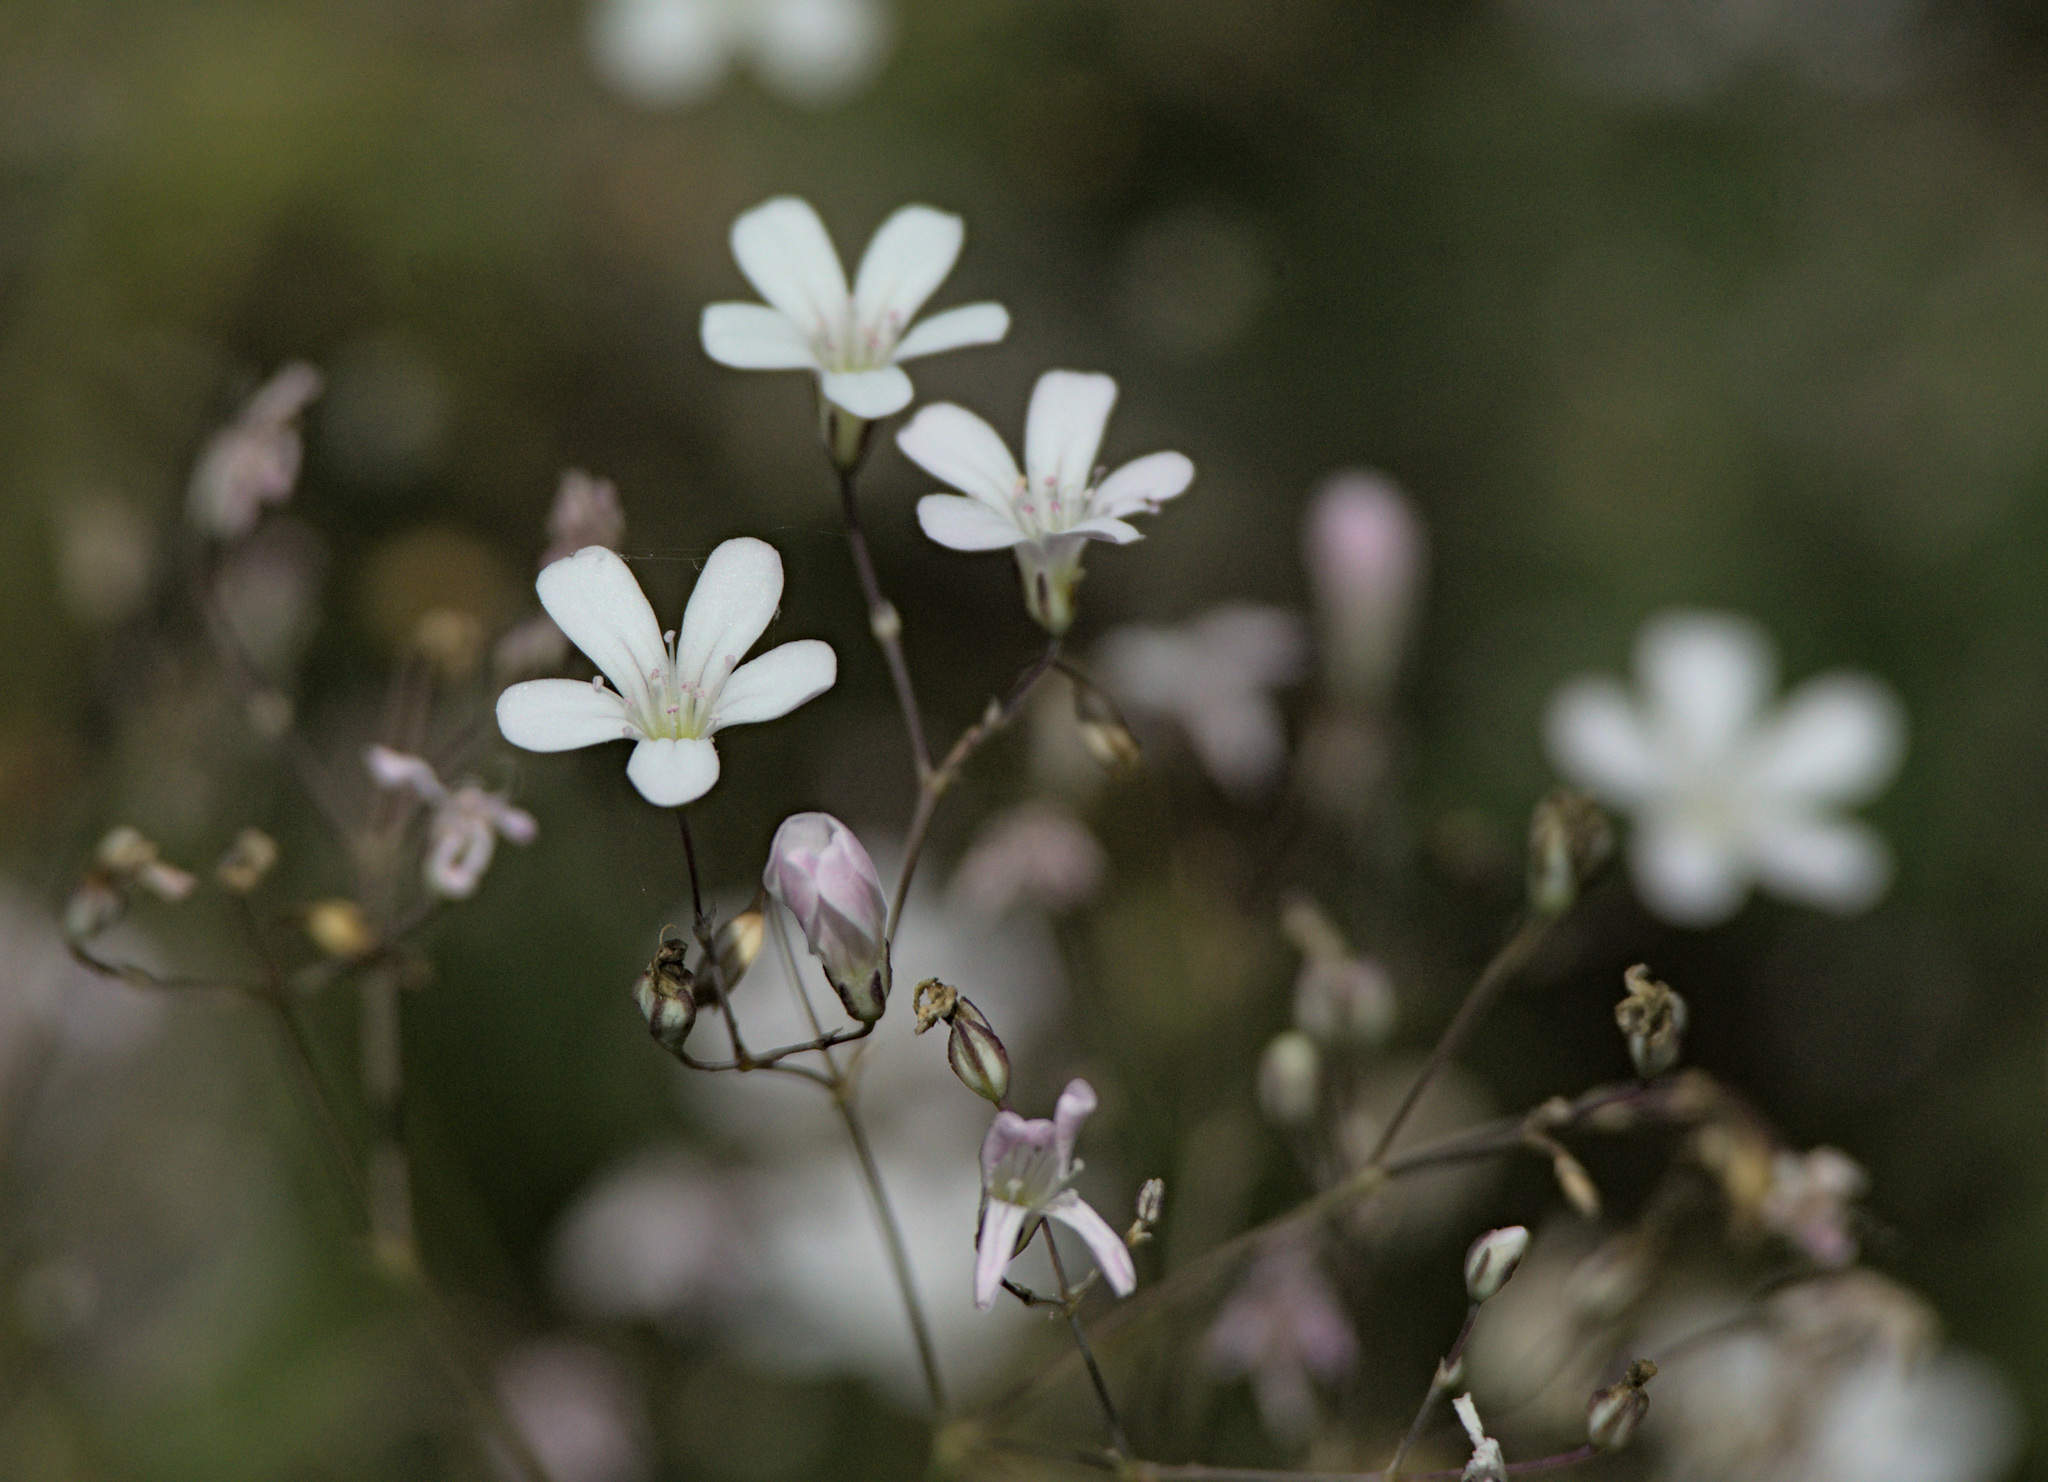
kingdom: Plantae
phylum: Tracheophyta
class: Magnoliopsida
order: Caryophyllales
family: Caryophyllaceae
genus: Gypsophila
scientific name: Gypsophila patrinii
